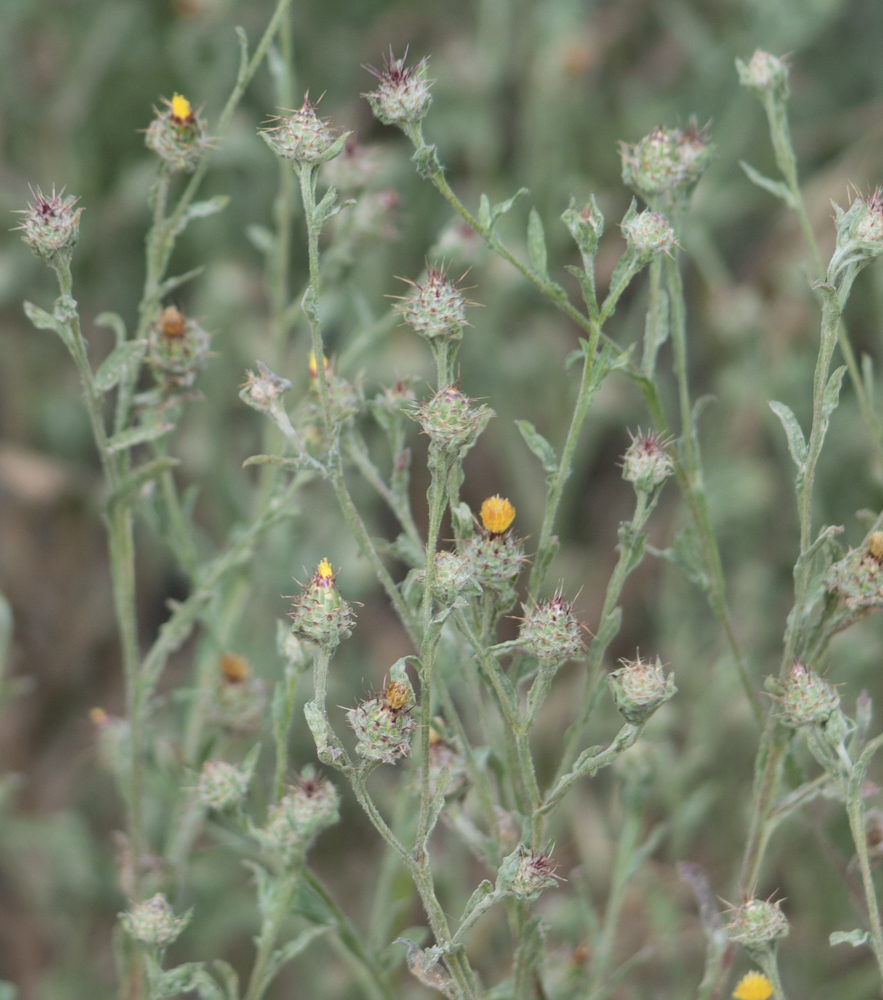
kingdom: Plantae
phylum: Tracheophyta
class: Magnoliopsida
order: Asterales
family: Asteraceae
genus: Centaurea
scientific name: Centaurea melitensis
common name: Maltese star-thistle
